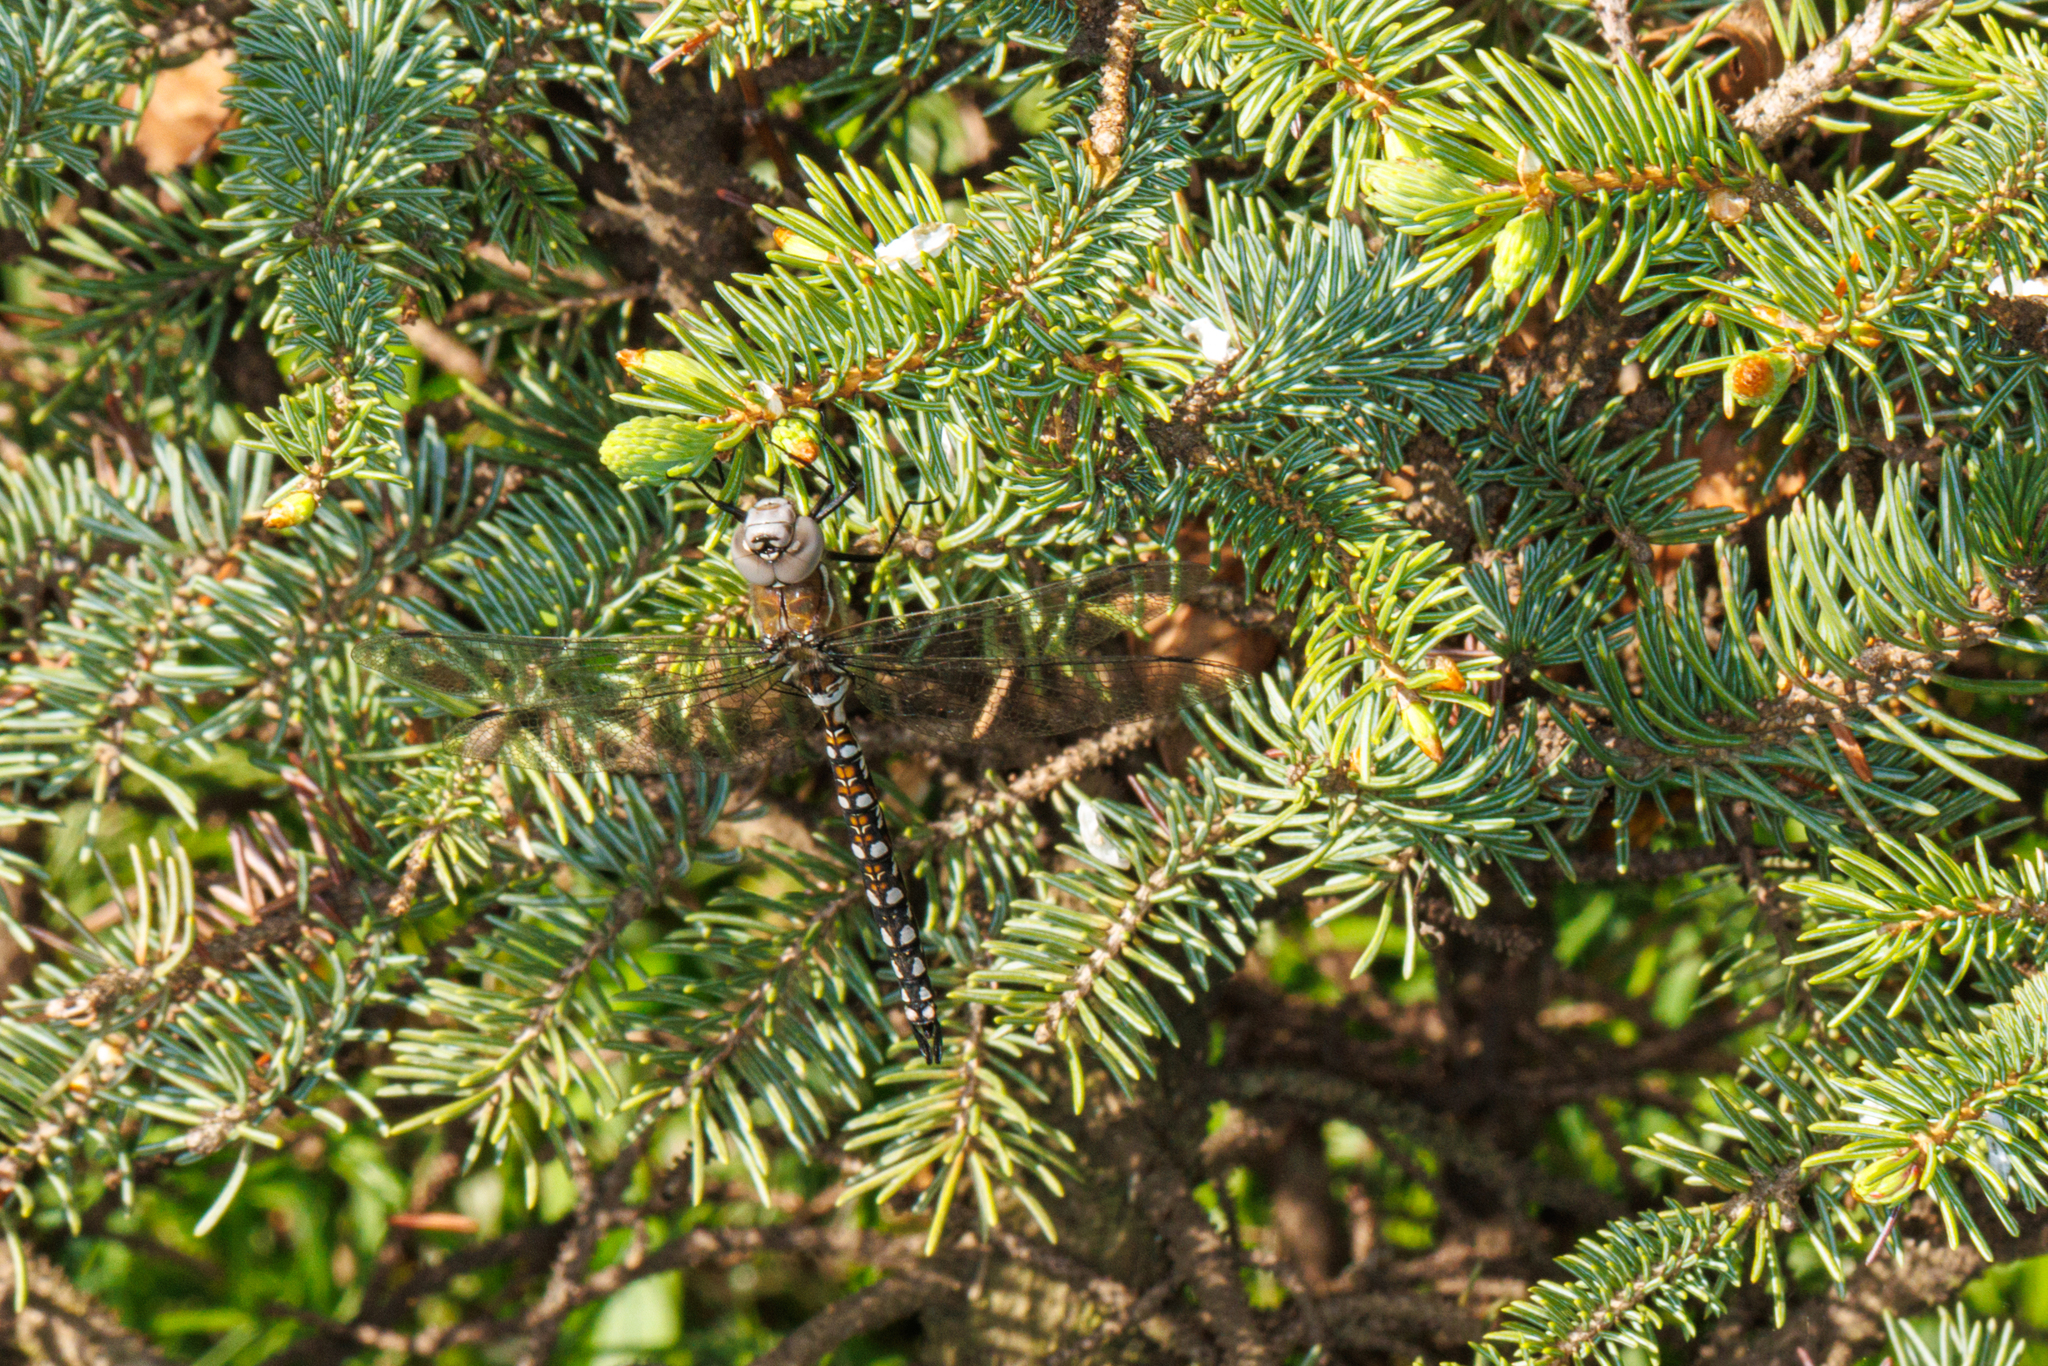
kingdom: Animalia
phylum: Arthropoda
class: Insecta
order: Odonata
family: Aeshnidae
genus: Rhionaeschna
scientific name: Rhionaeschna californica
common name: California darner
